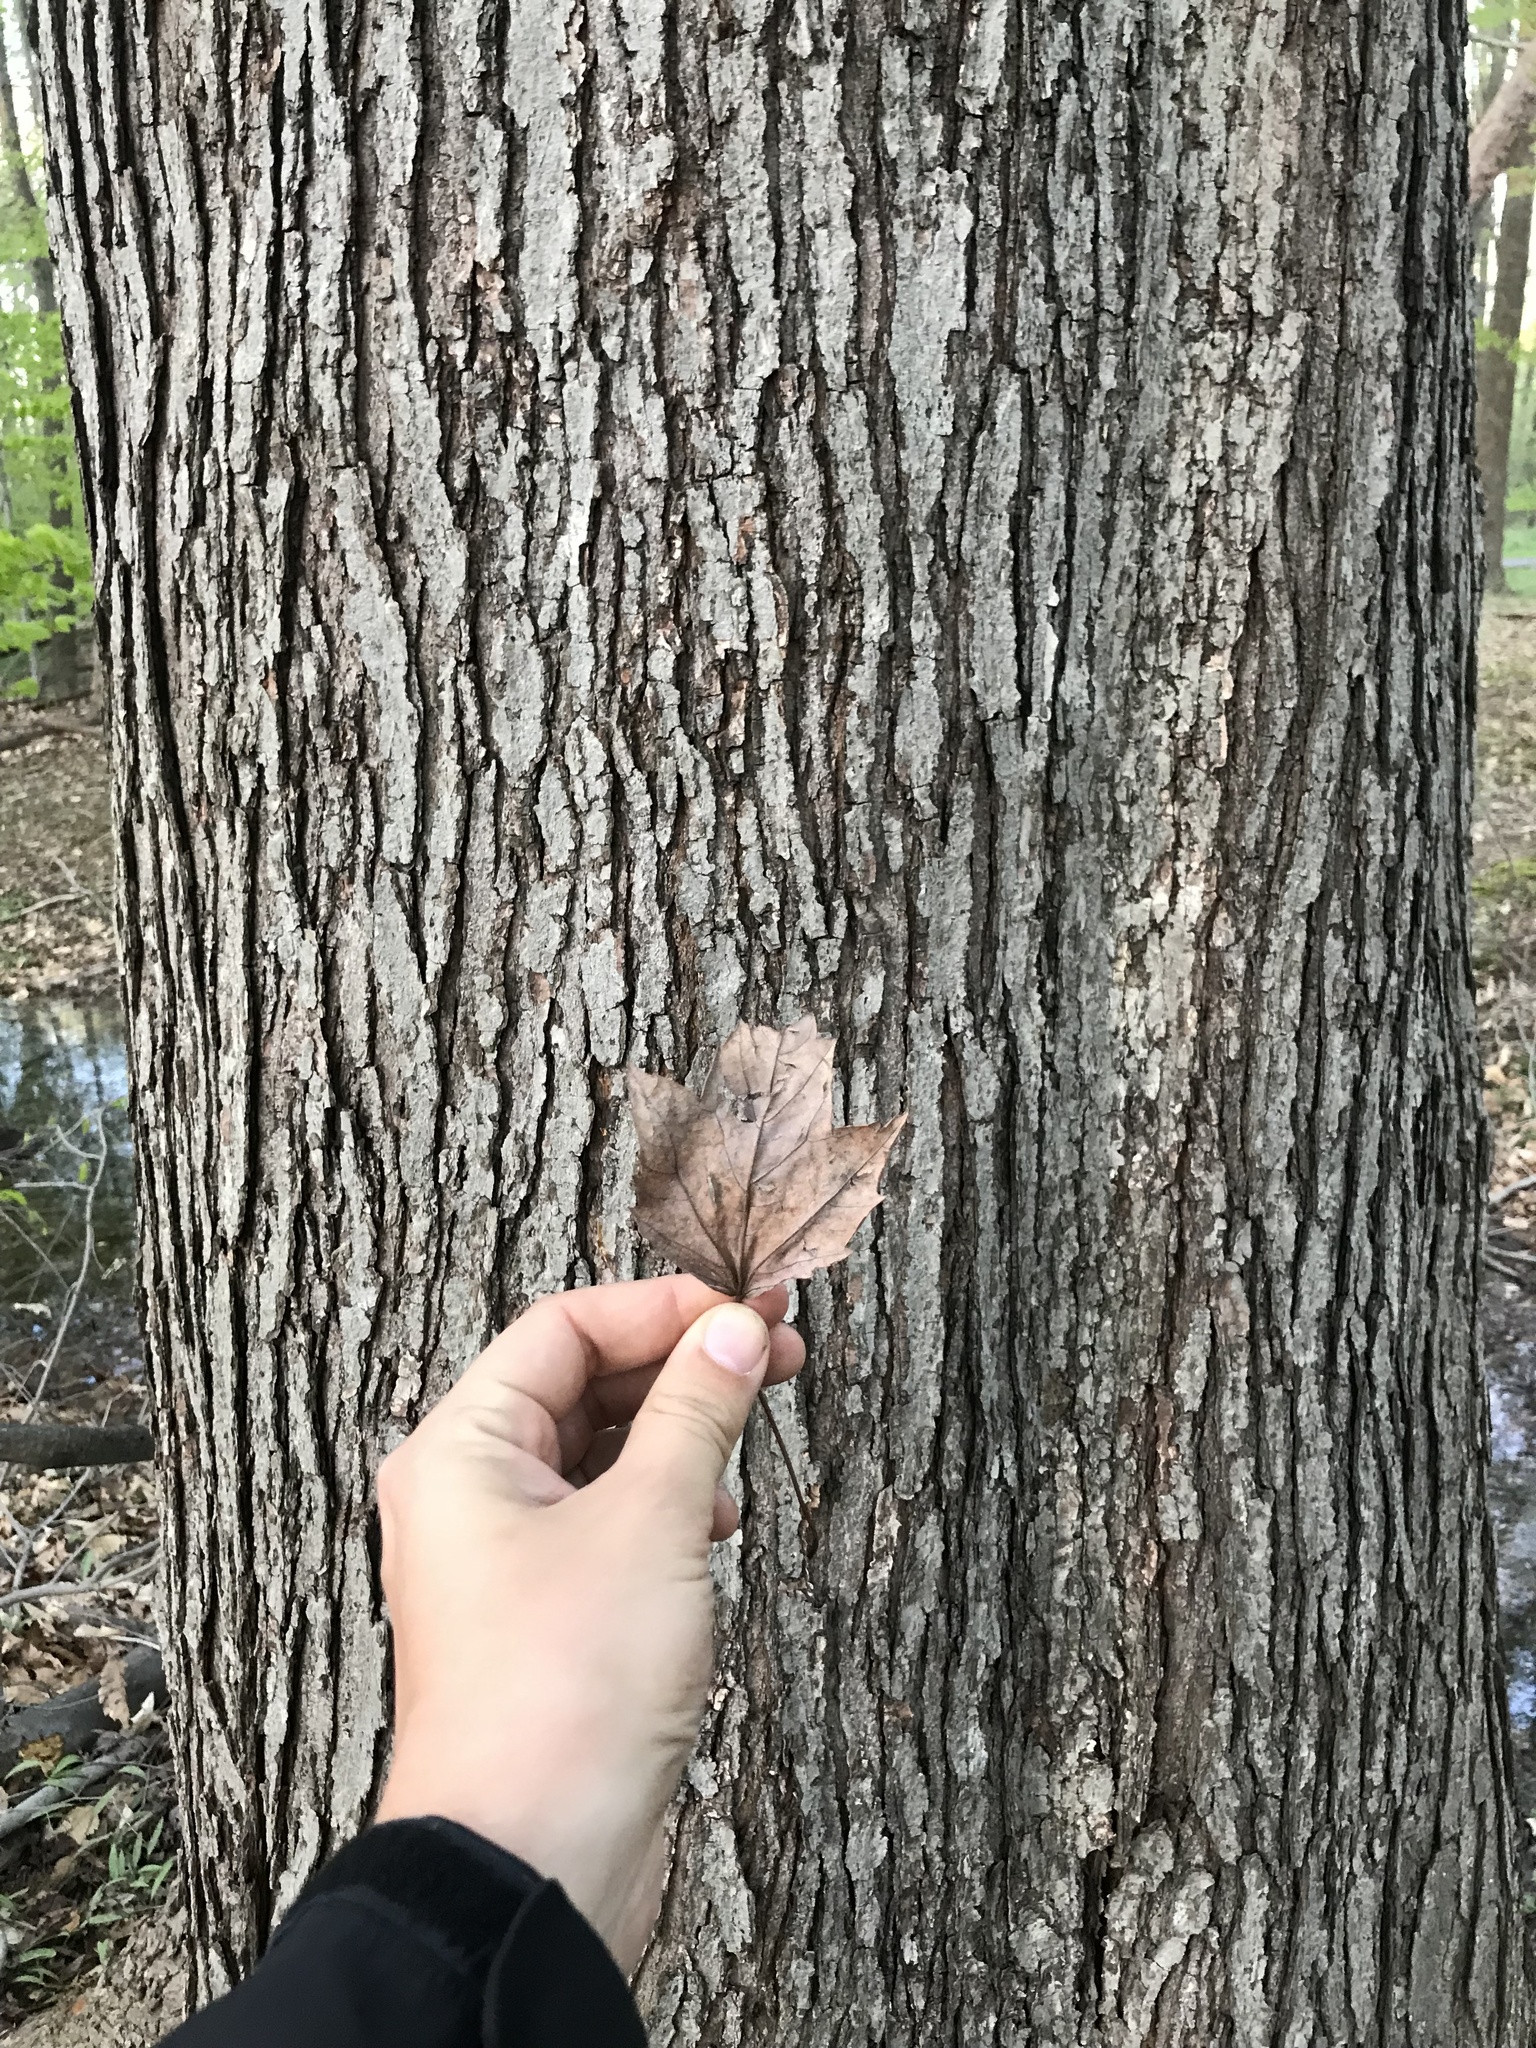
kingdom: Plantae
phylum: Tracheophyta
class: Magnoliopsida
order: Sapindales
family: Sapindaceae
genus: Acer
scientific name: Acer rubrum
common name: Red maple
